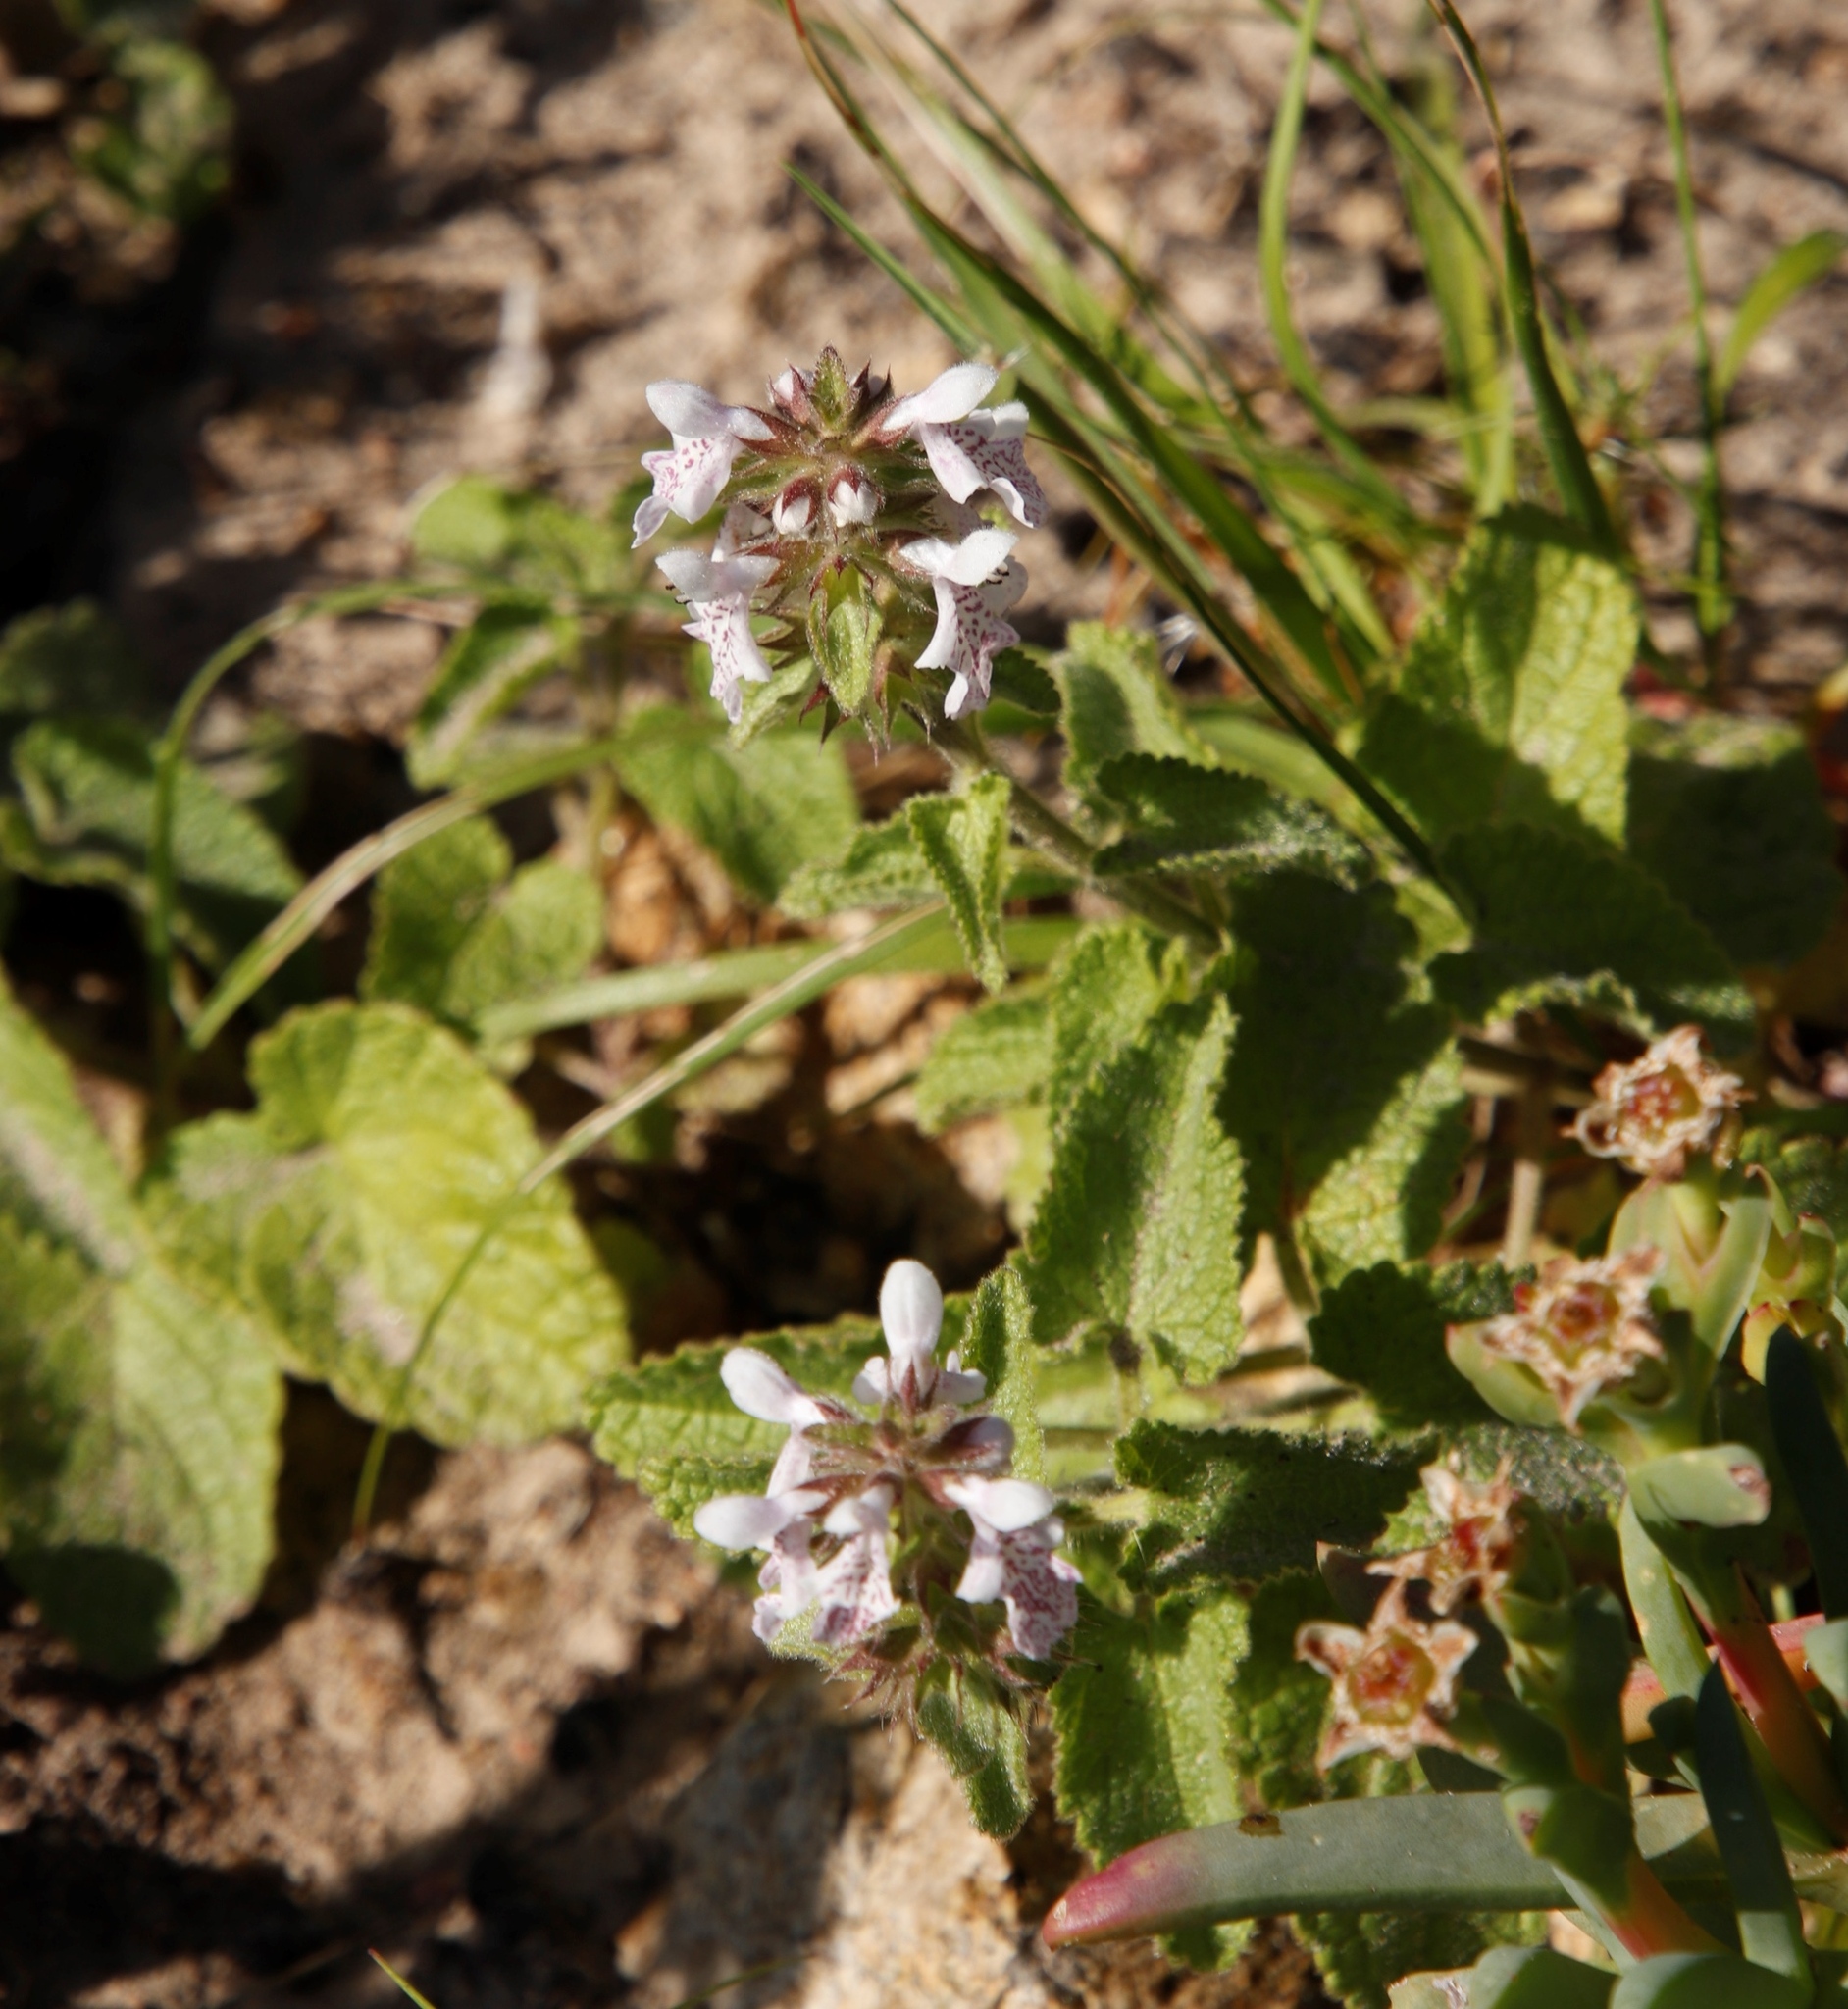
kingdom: Plantae
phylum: Tracheophyta
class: Magnoliopsida
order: Lamiales
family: Lamiaceae
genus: Stachys
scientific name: Stachys bolusii
